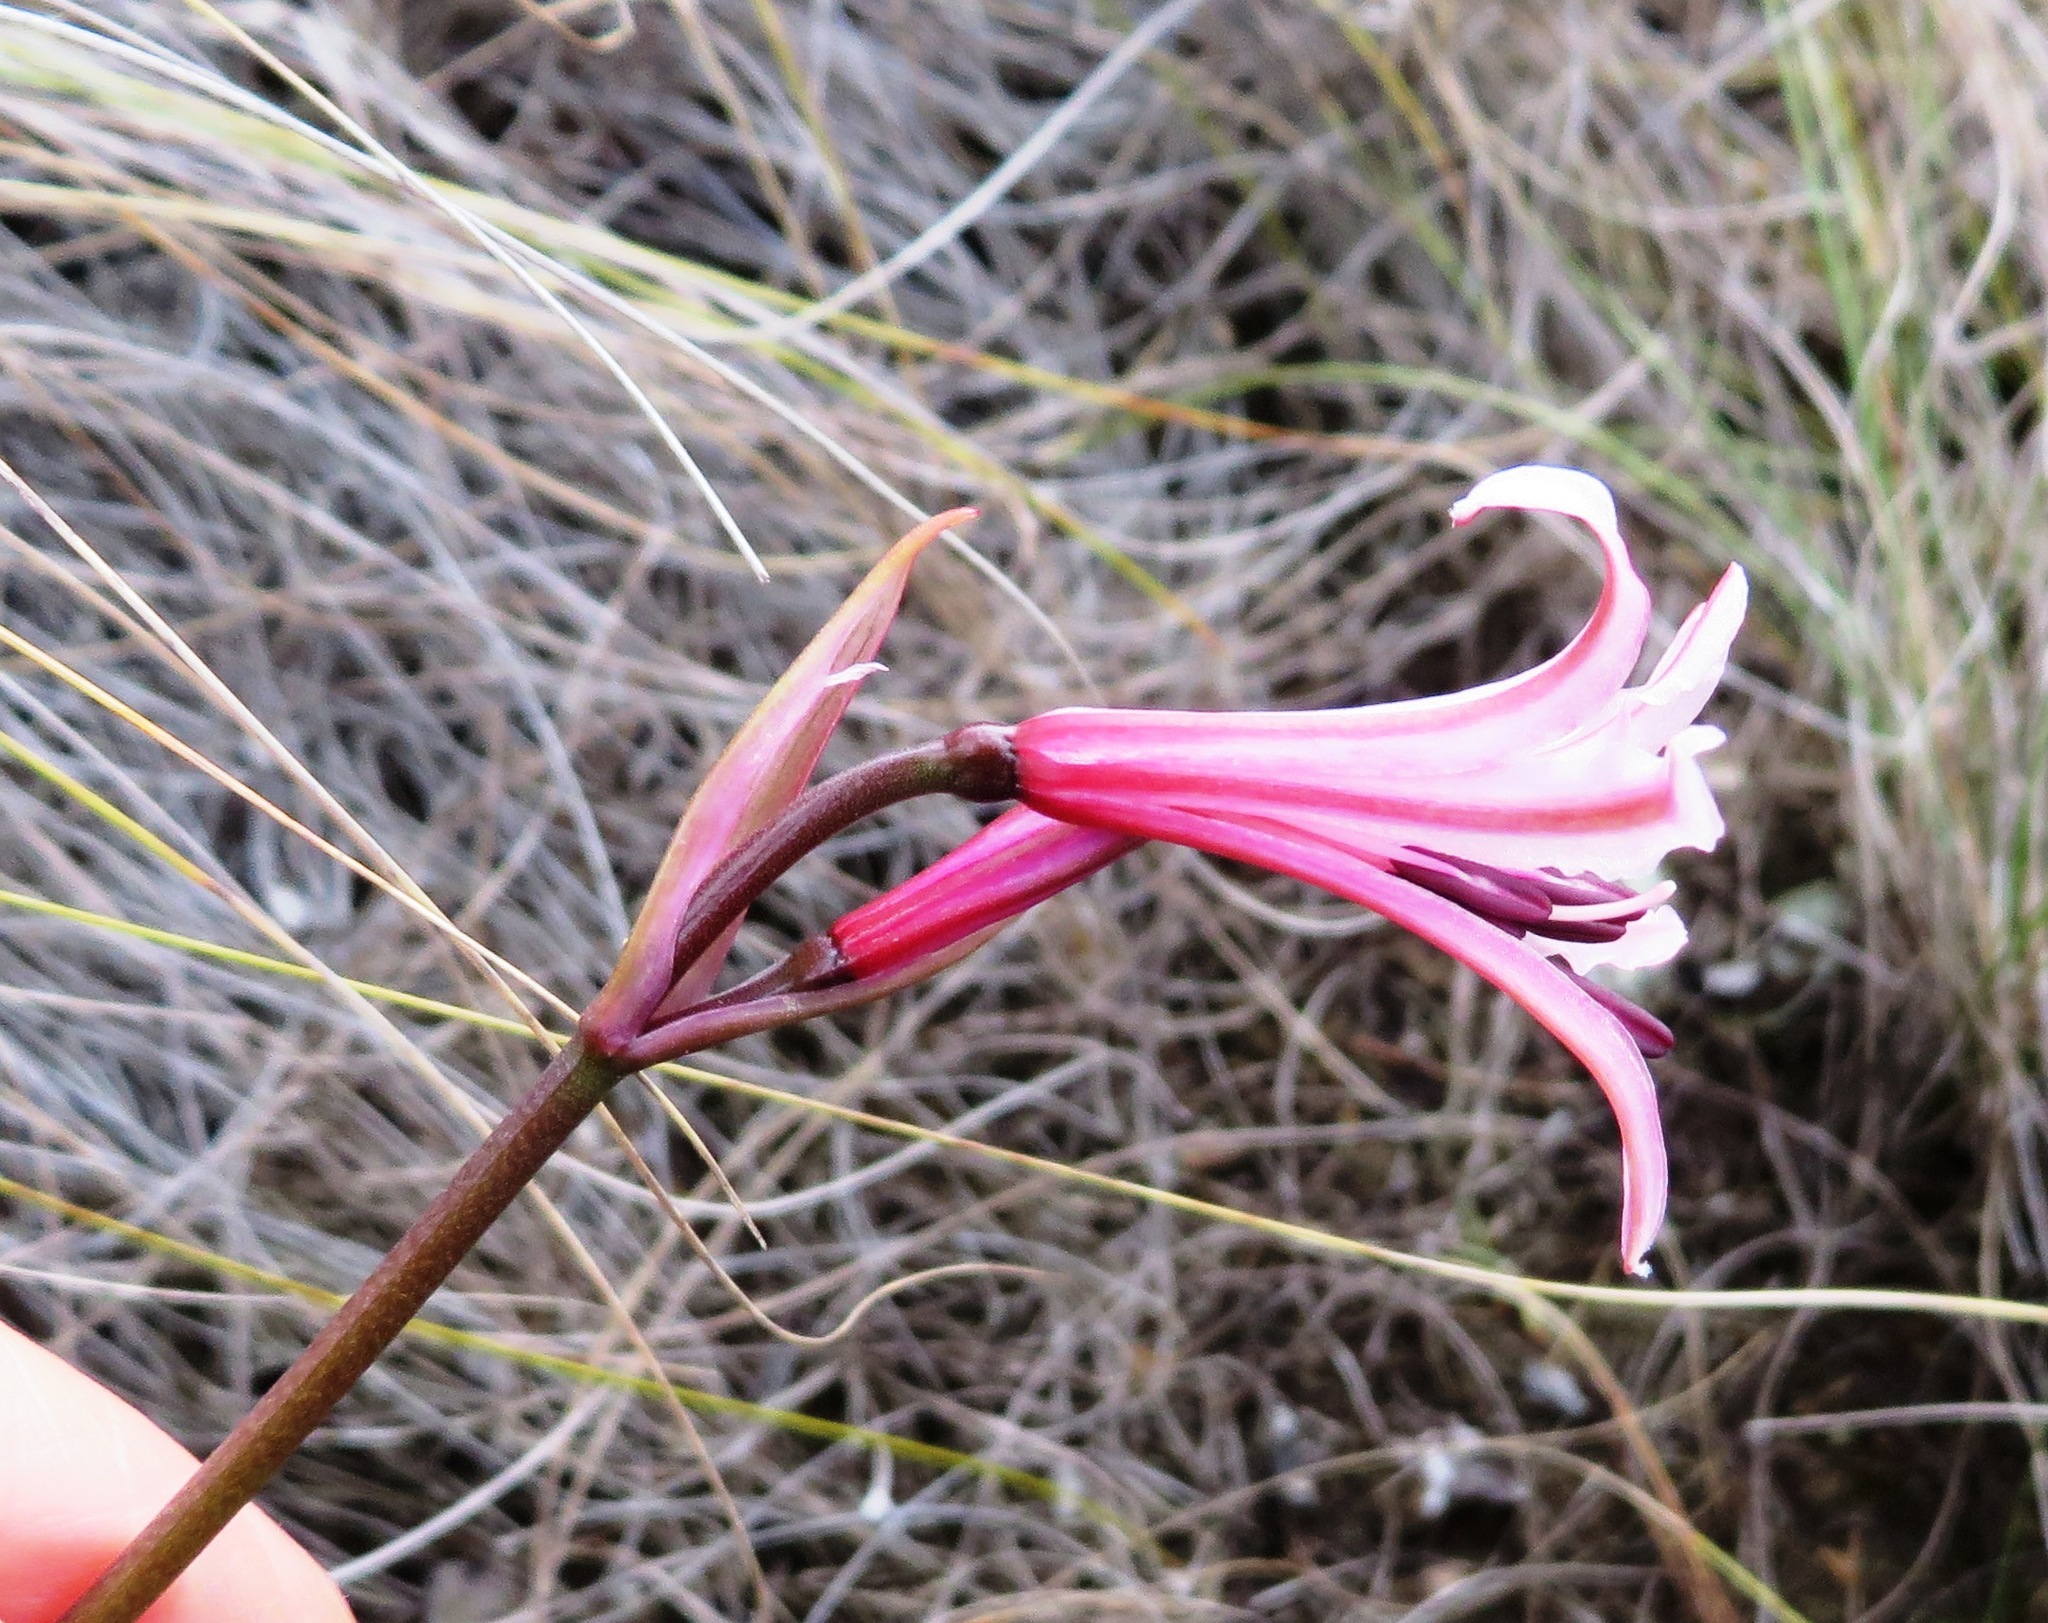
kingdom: Plantae
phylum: Tracheophyta
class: Liliopsida
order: Asparagales
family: Amaryllidaceae
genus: Nerine
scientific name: Nerine humilis
